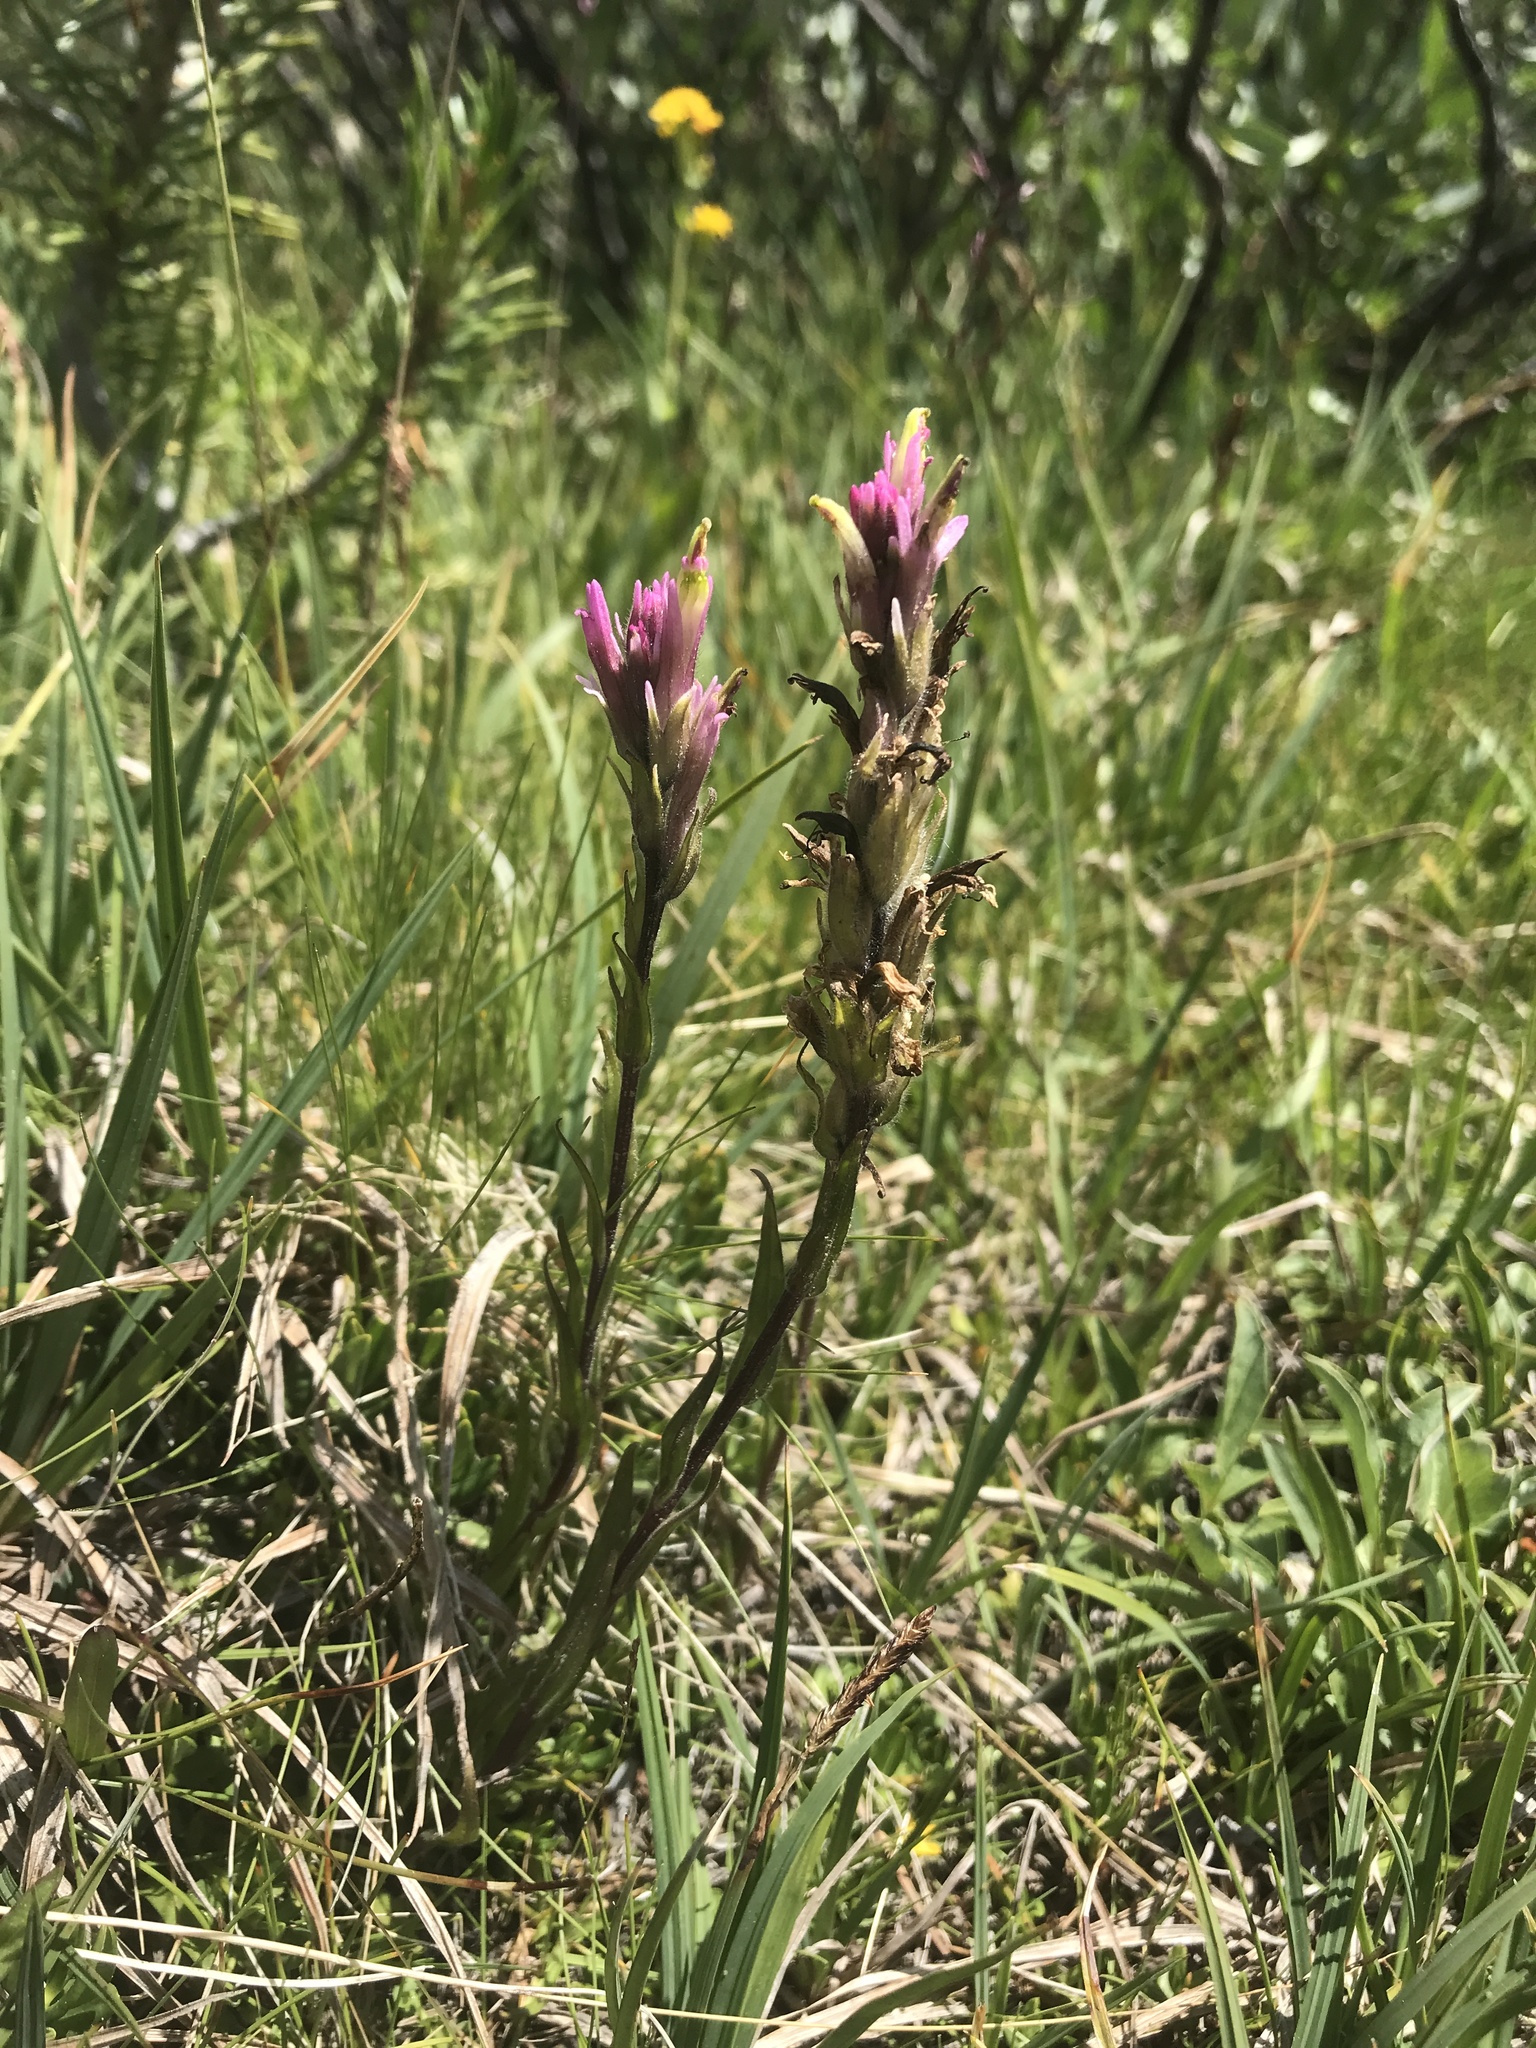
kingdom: Plantae
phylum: Tracheophyta
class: Magnoliopsida
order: Lamiales
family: Orobanchaceae
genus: Castilleja
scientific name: Castilleja lemmonii
